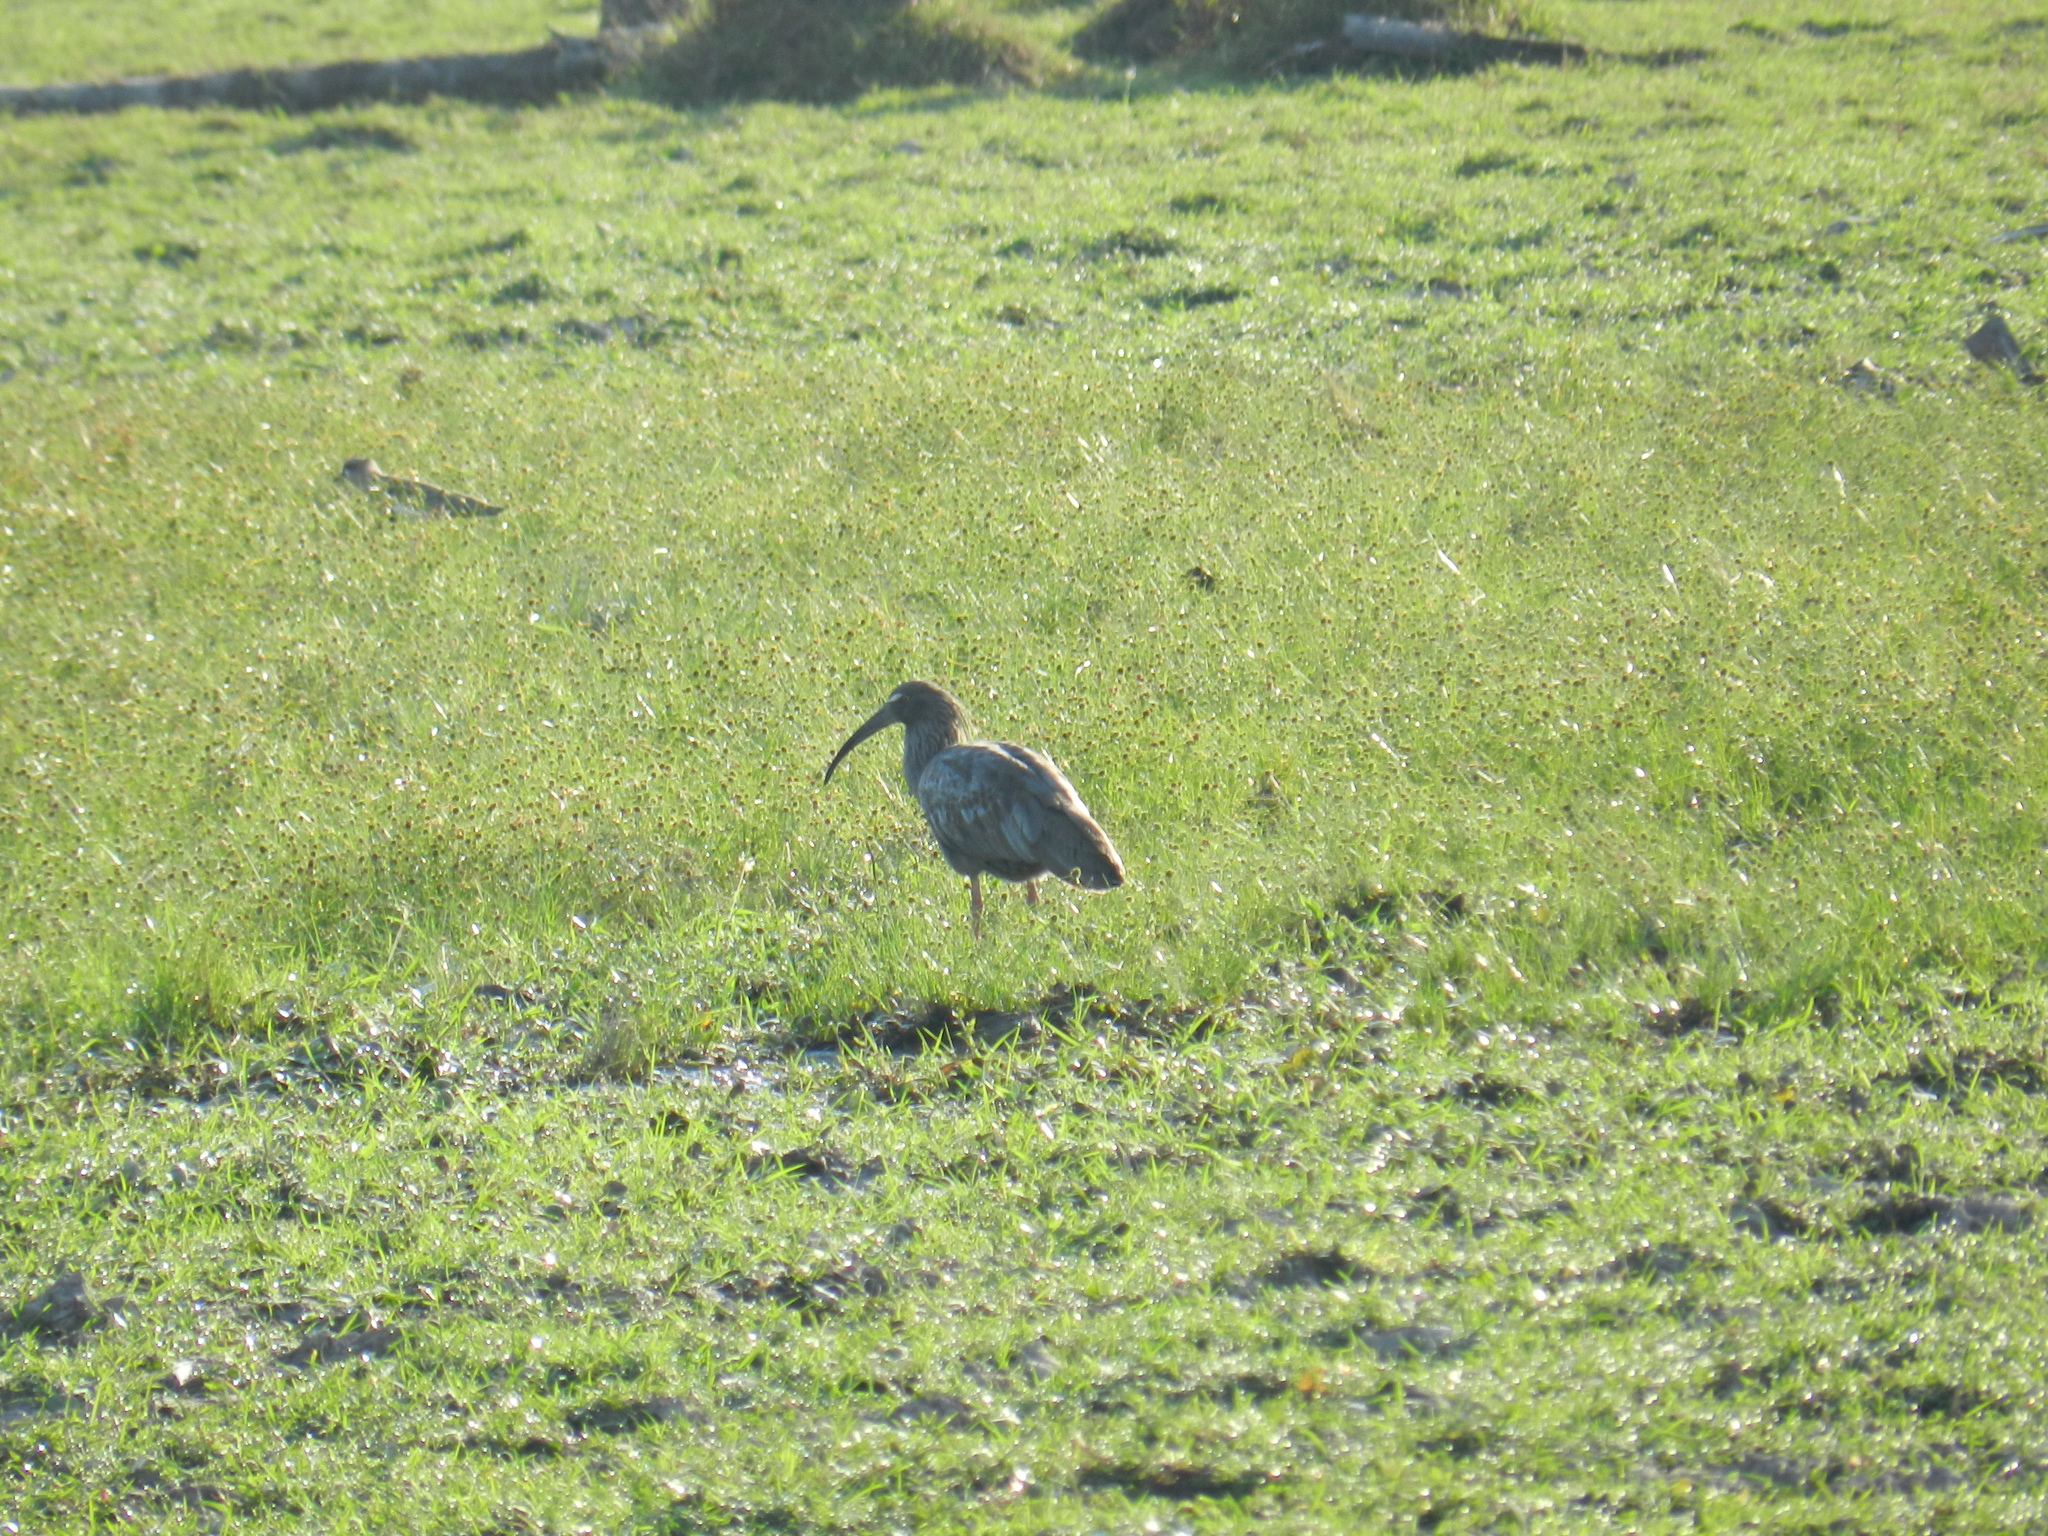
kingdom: Animalia
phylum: Chordata
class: Aves
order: Pelecaniformes
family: Threskiornithidae
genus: Theristicus
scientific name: Theristicus caerulescens
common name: Plumbeous ibis
